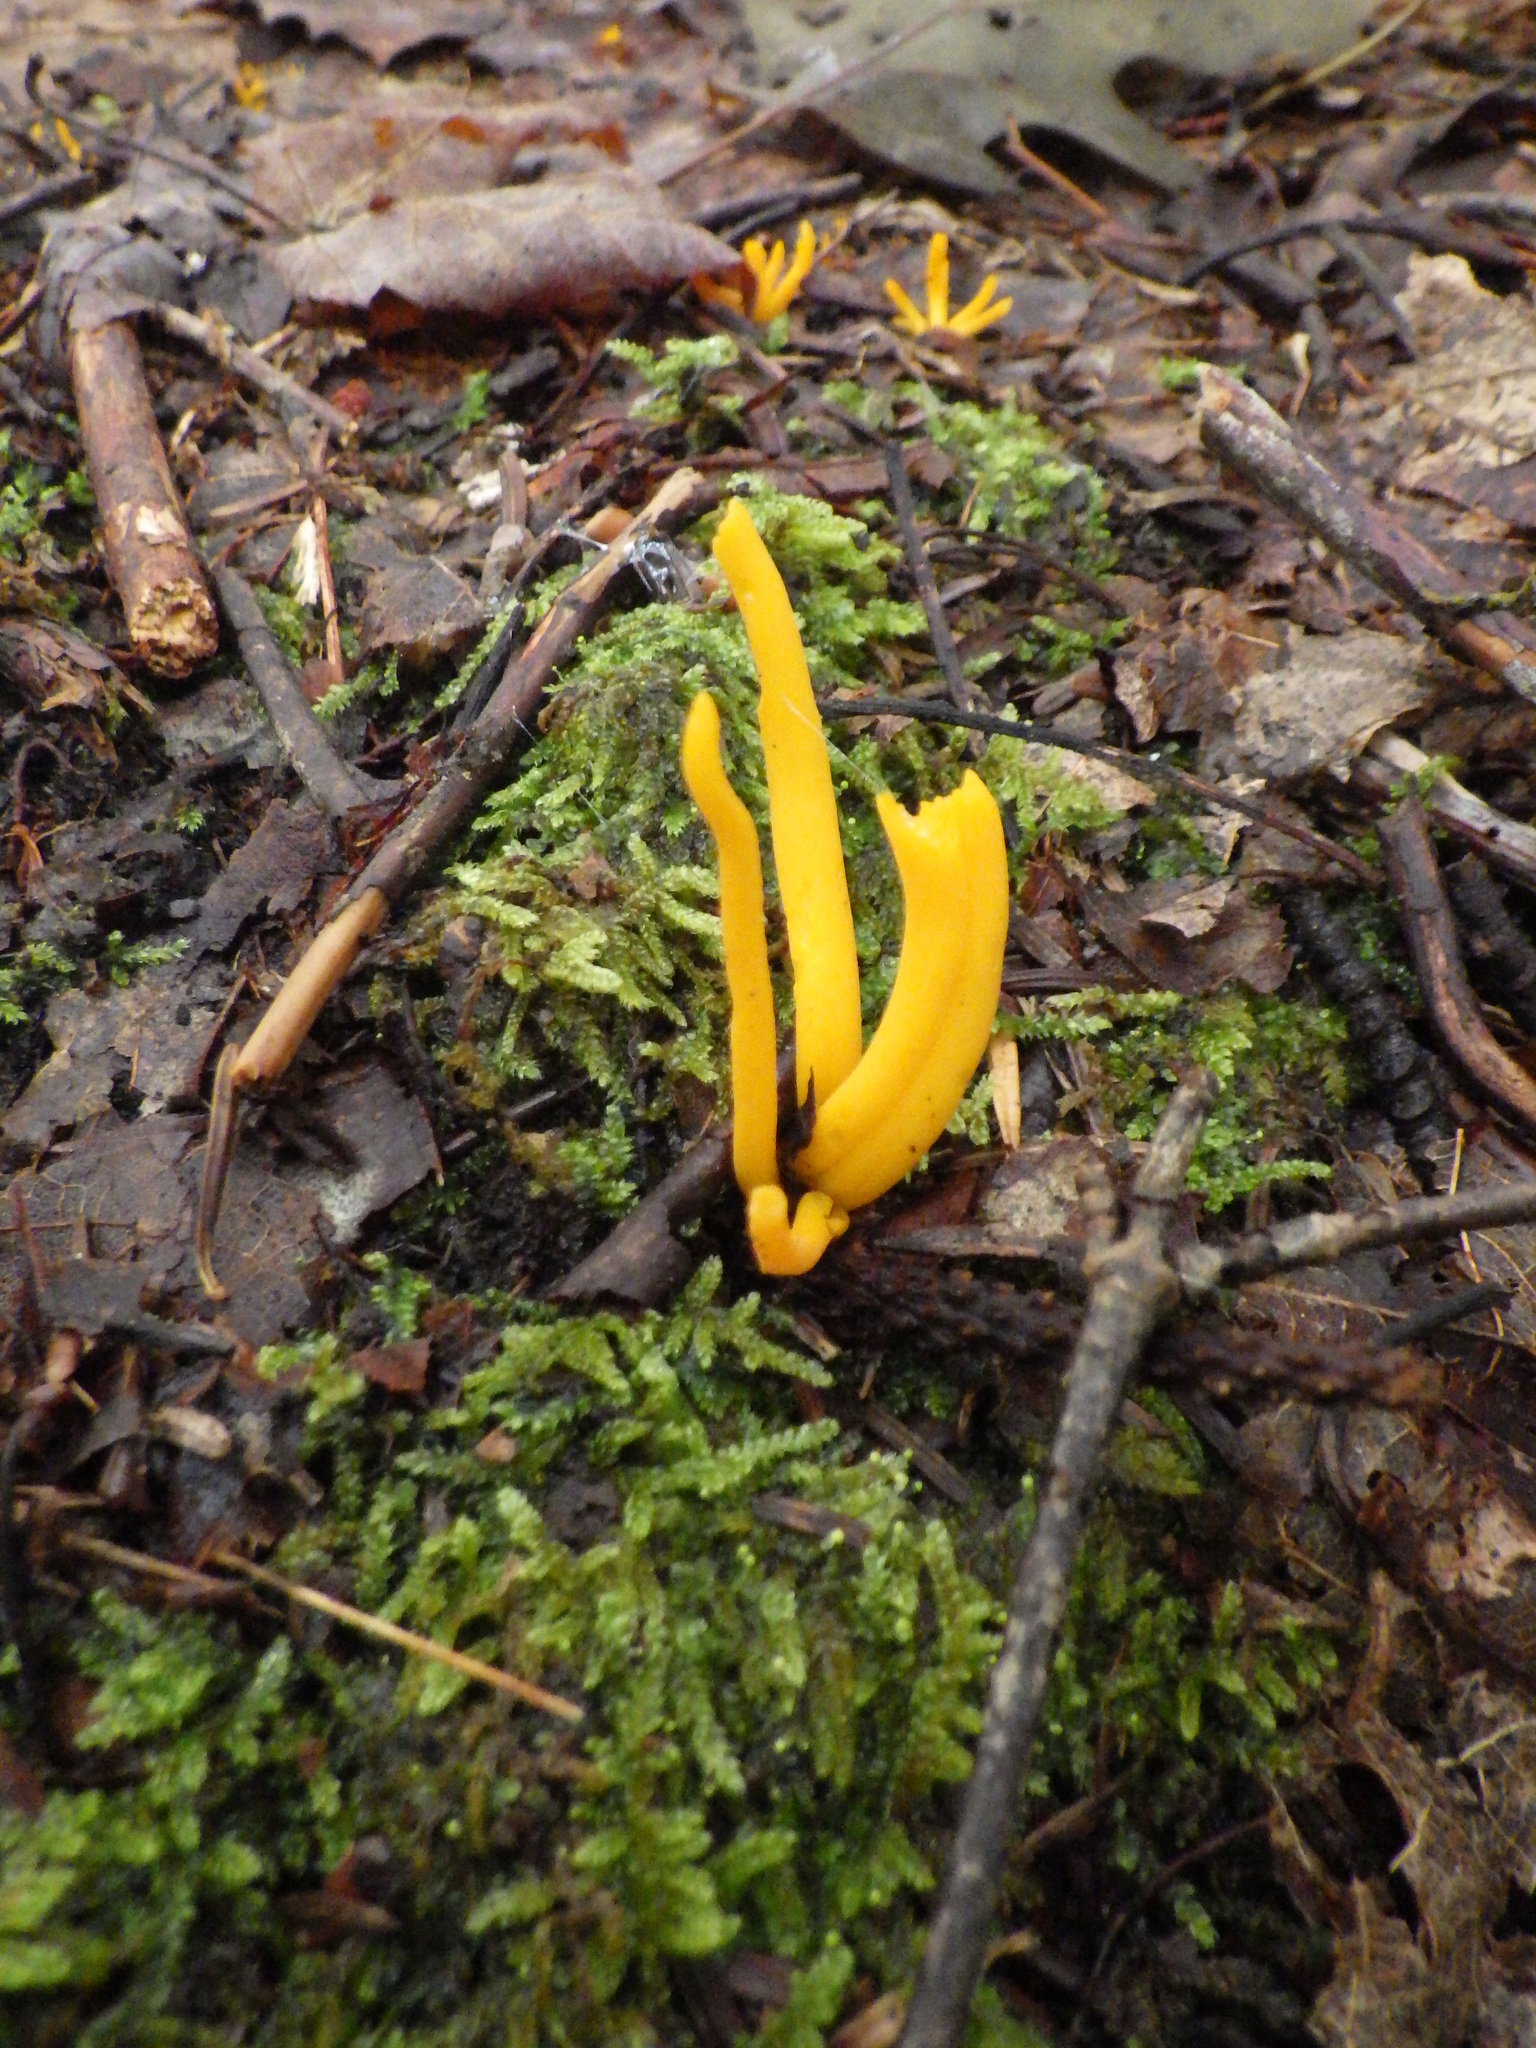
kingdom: Fungi
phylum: Basidiomycota
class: Agaricomycetes
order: Agaricales
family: Clavariaceae
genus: Clavulinopsis
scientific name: Clavulinopsis fusiformis
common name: Golden spindles
